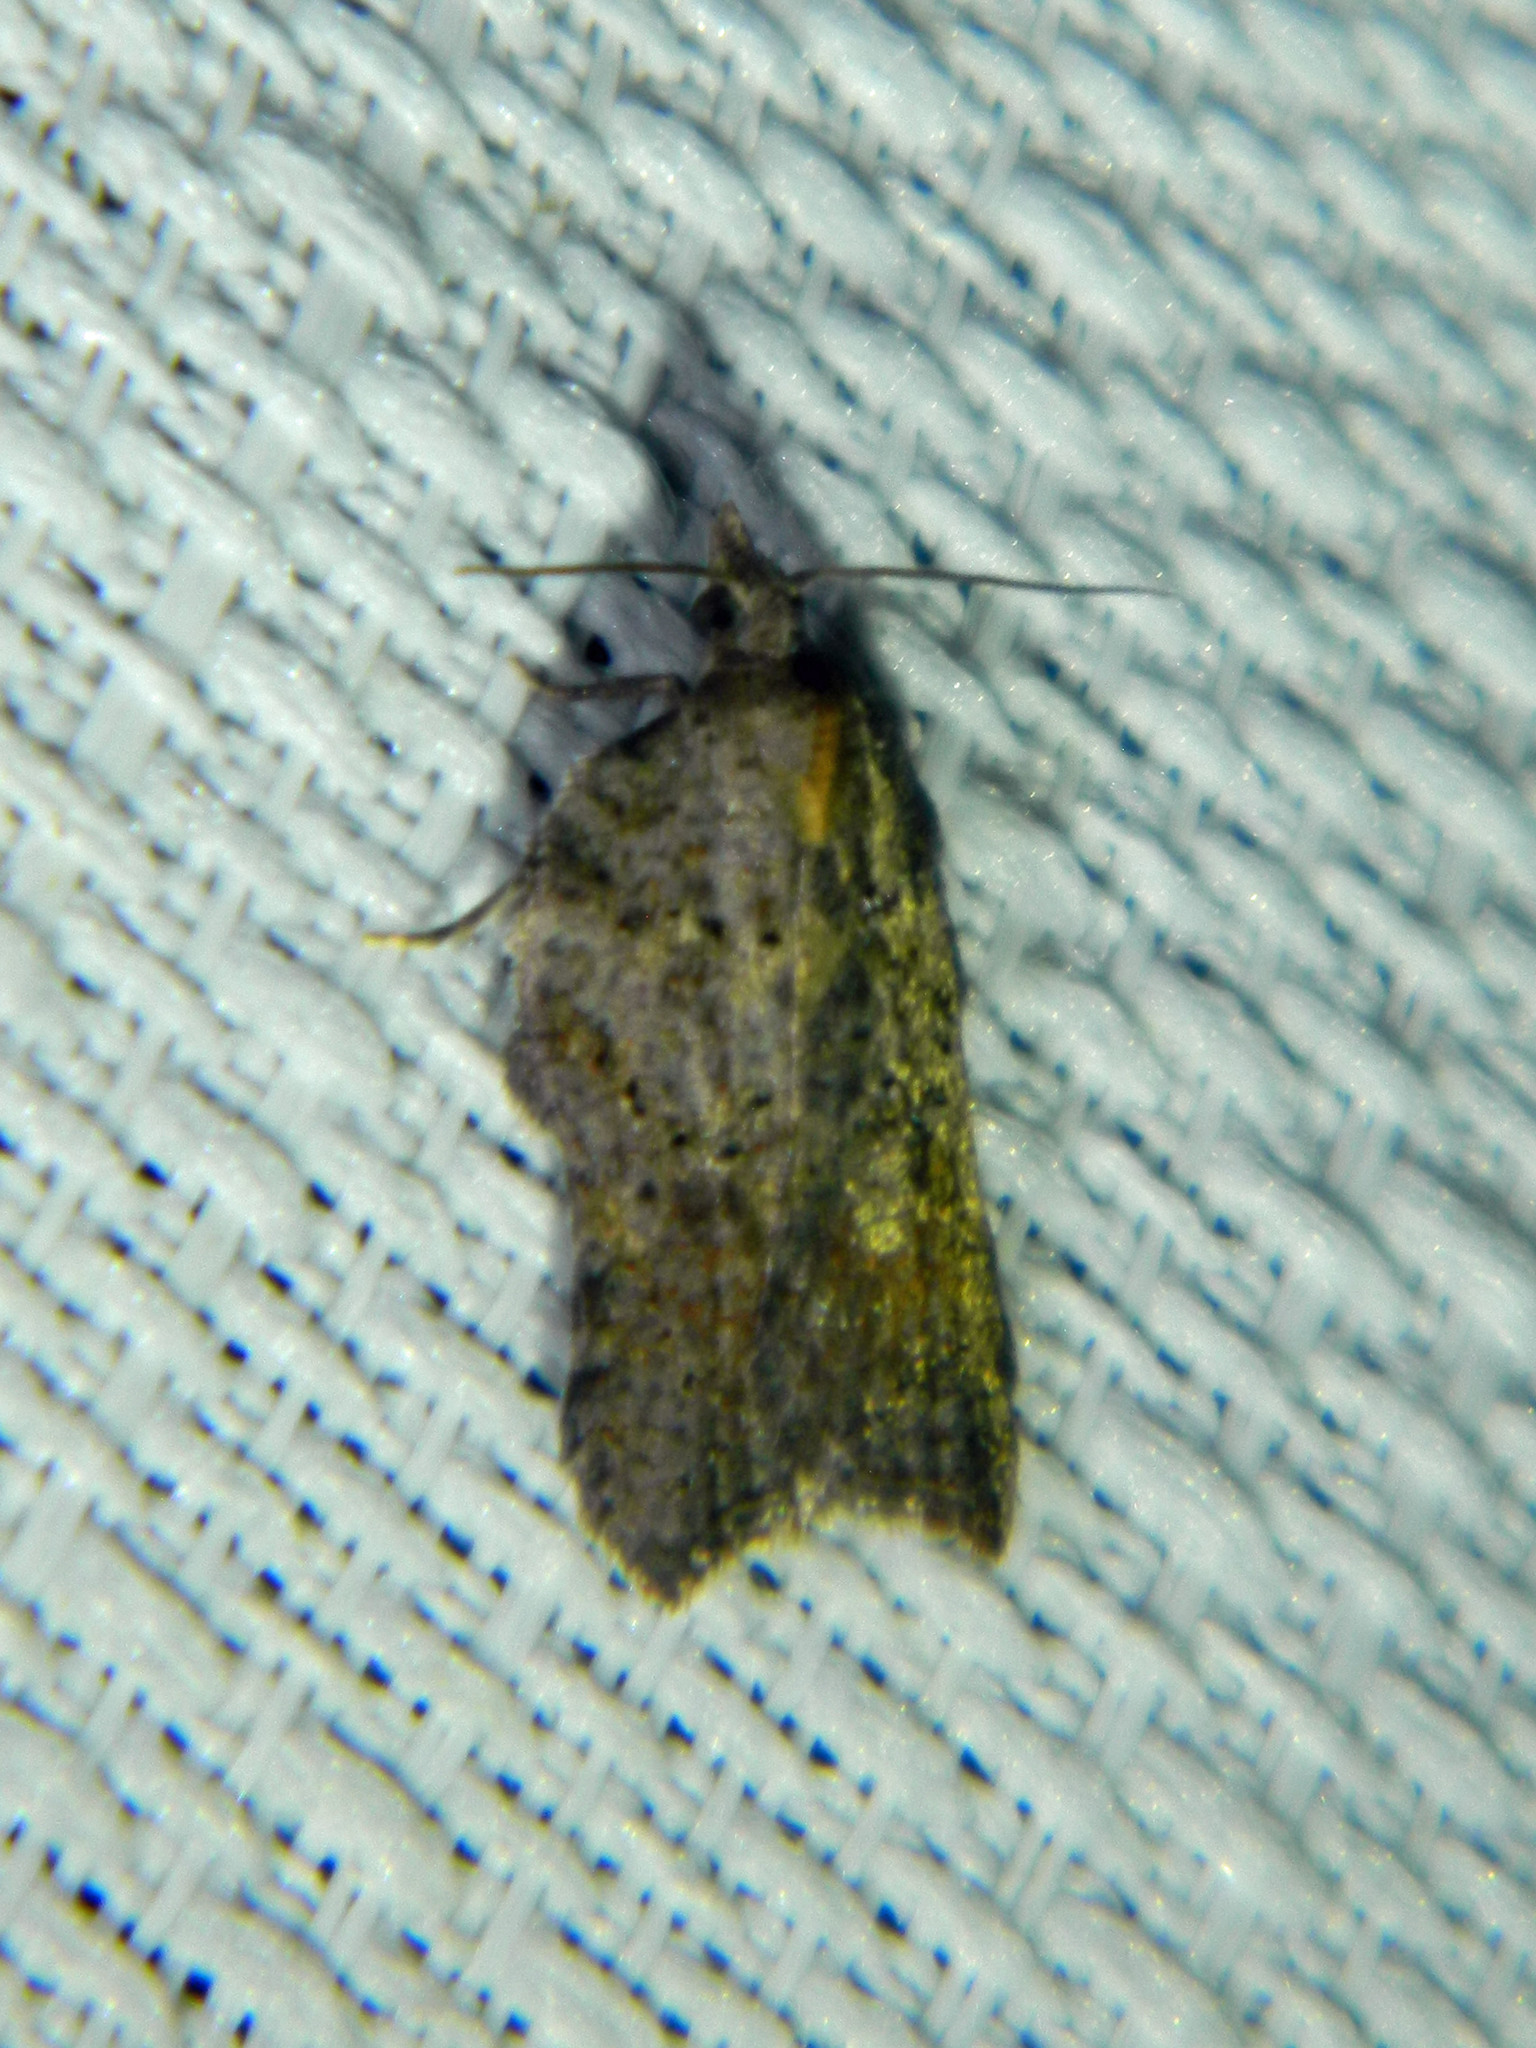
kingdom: Animalia
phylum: Arthropoda
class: Insecta
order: Lepidoptera
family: Tortricidae
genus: Acleris
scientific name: Acleris effractana
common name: Hook-winged tortrix moth
